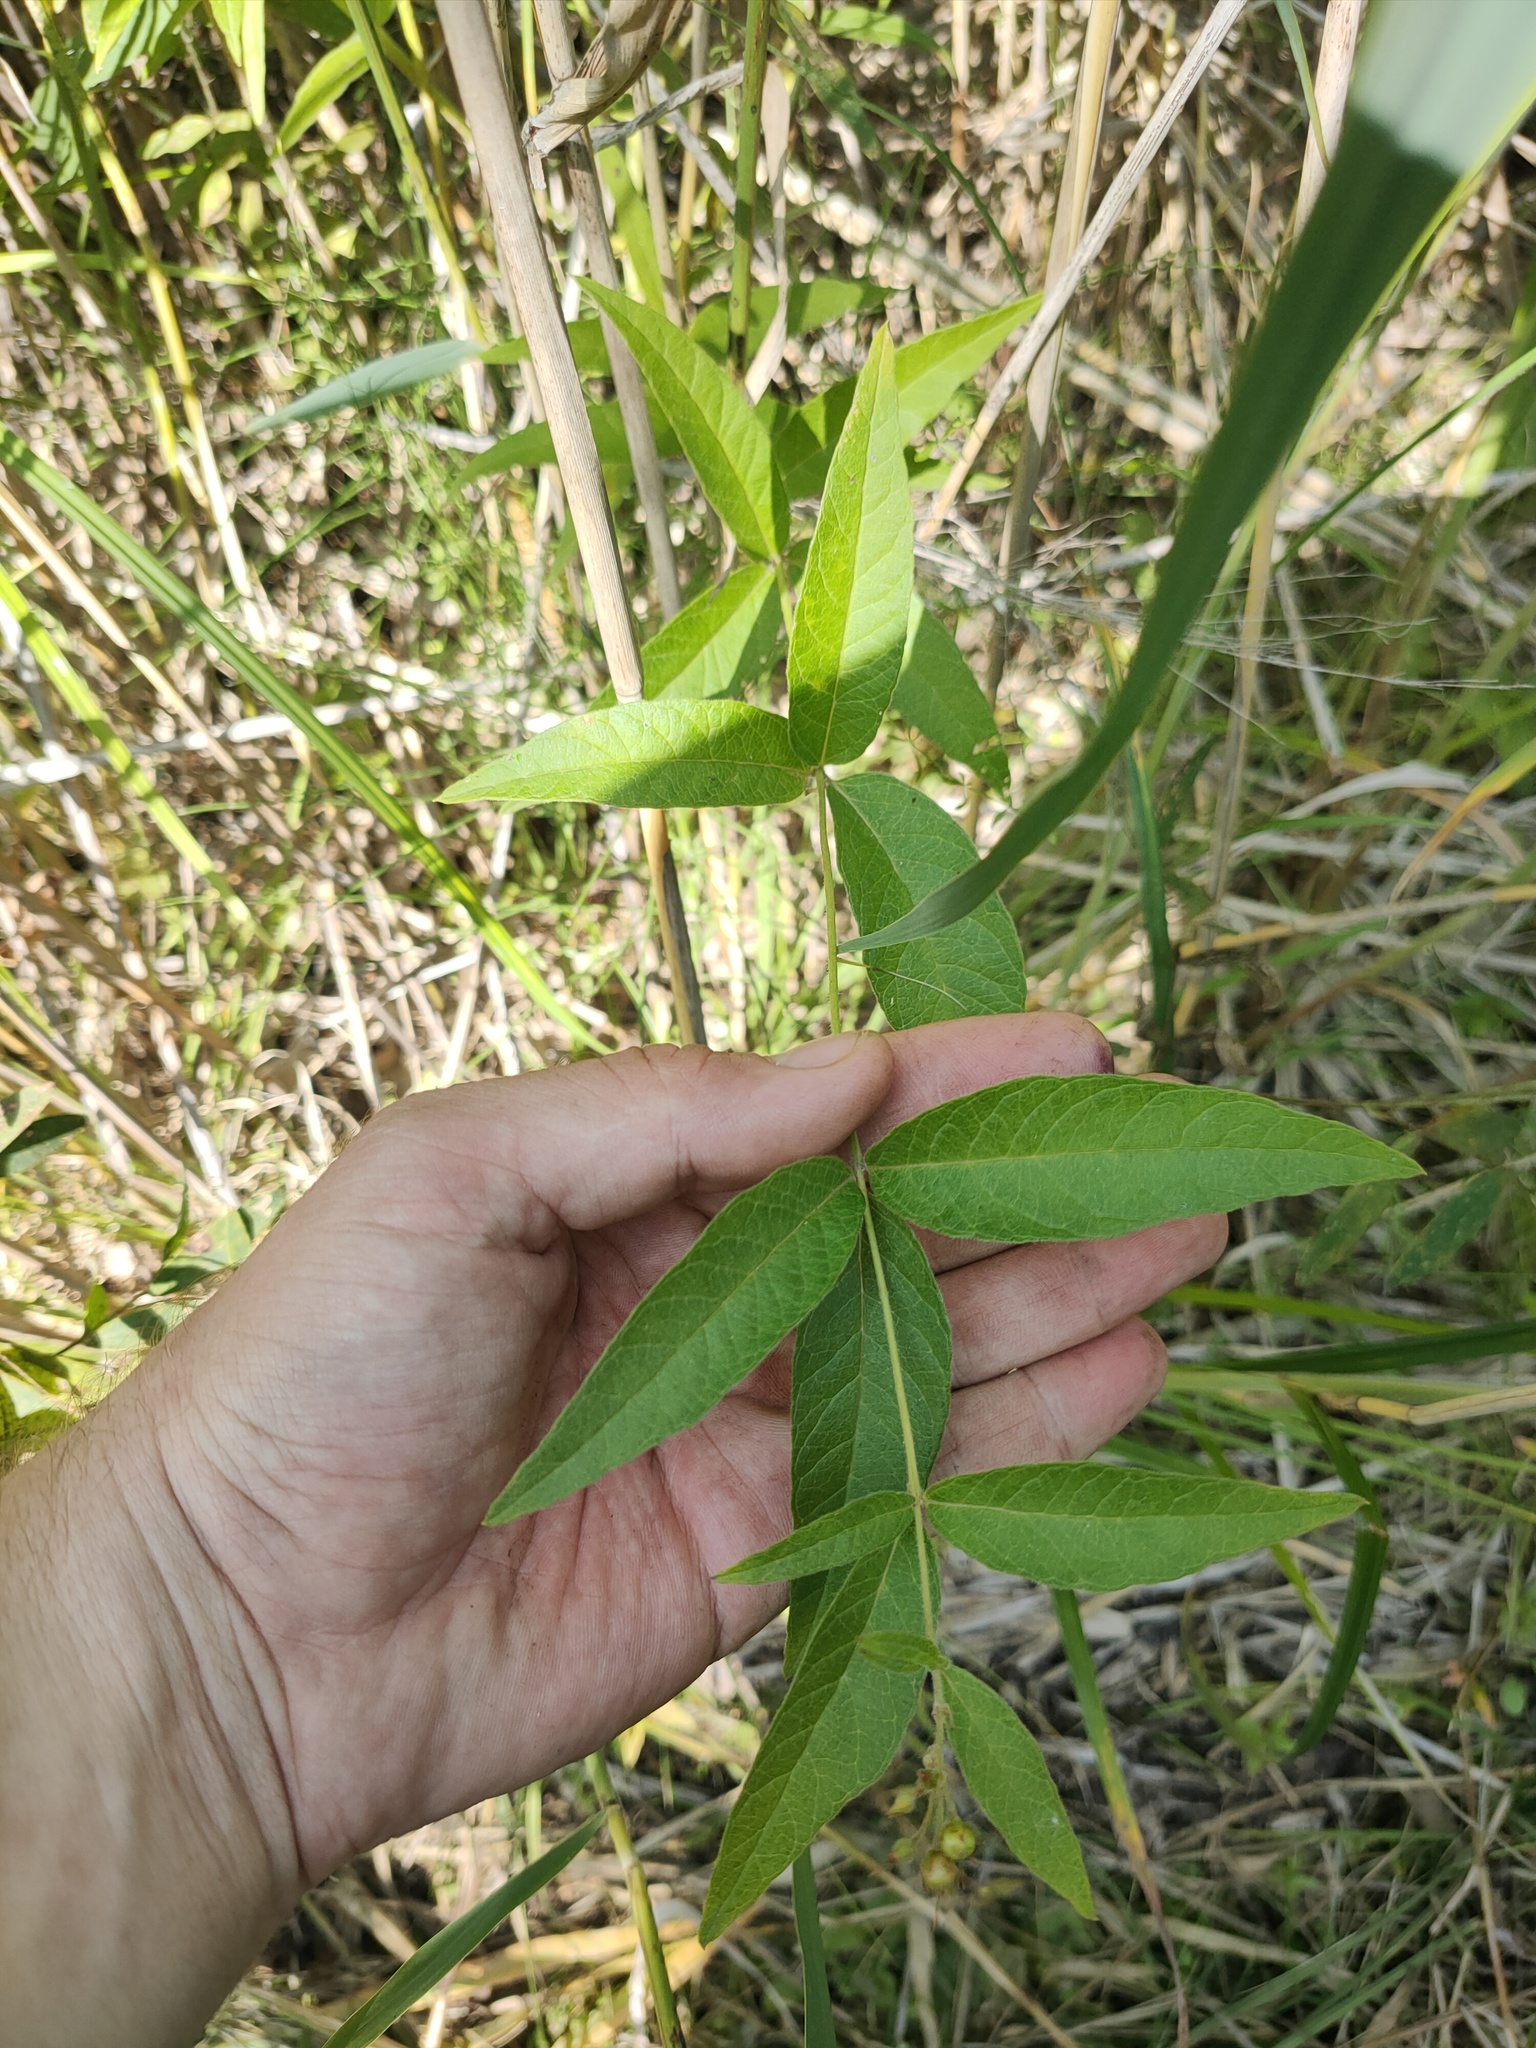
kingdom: Plantae
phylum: Tracheophyta
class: Magnoliopsida
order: Ericales
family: Primulaceae
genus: Lysimachia
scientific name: Lysimachia vulgaris
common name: Yellow loosestrife
